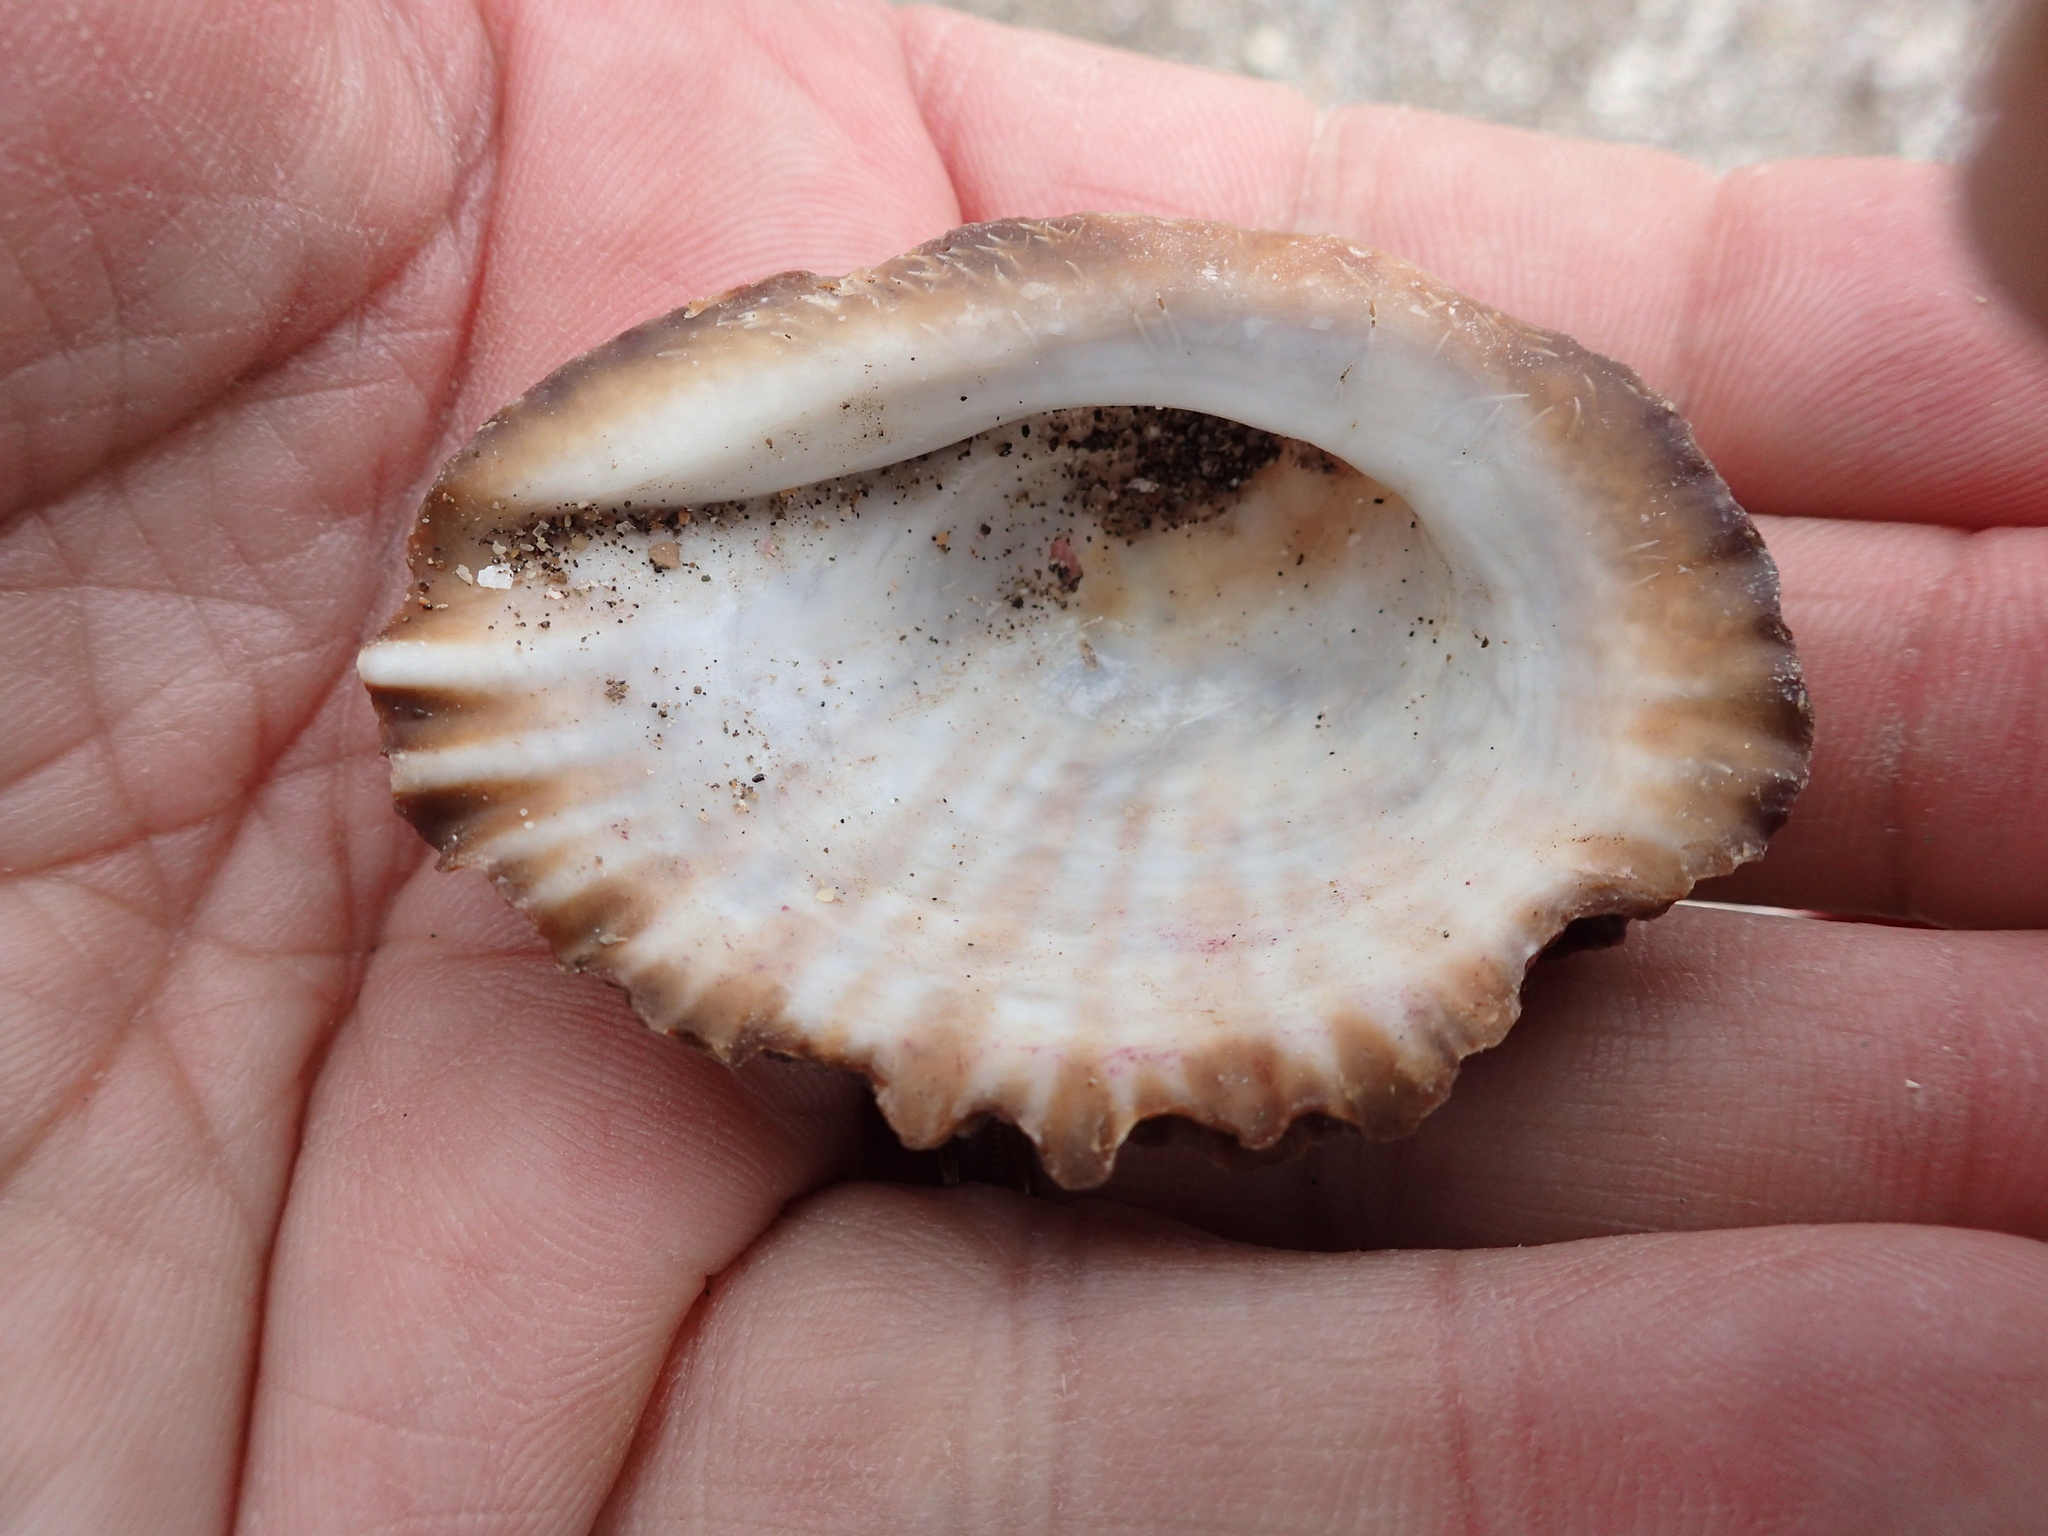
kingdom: Animalia
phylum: Mollusca
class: Gastropoda
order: Neogastropoda
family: Muricidae
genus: Concholepas
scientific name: Concholepas concholepas
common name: Chilean abalone
